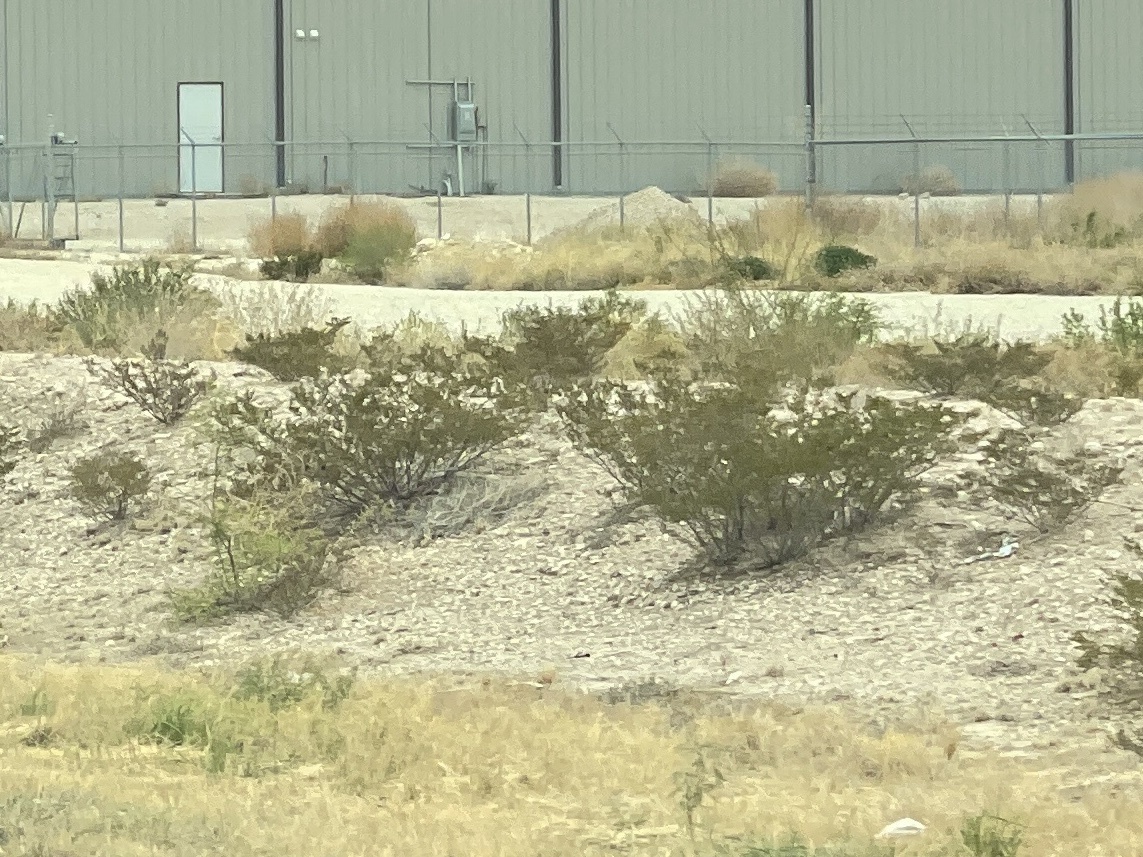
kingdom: Plantae
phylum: Tracheophyta
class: Magnoliopsida
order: Zygophyllales
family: Zygophyllaceae
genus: Larrea
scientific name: Larrea tridentata
